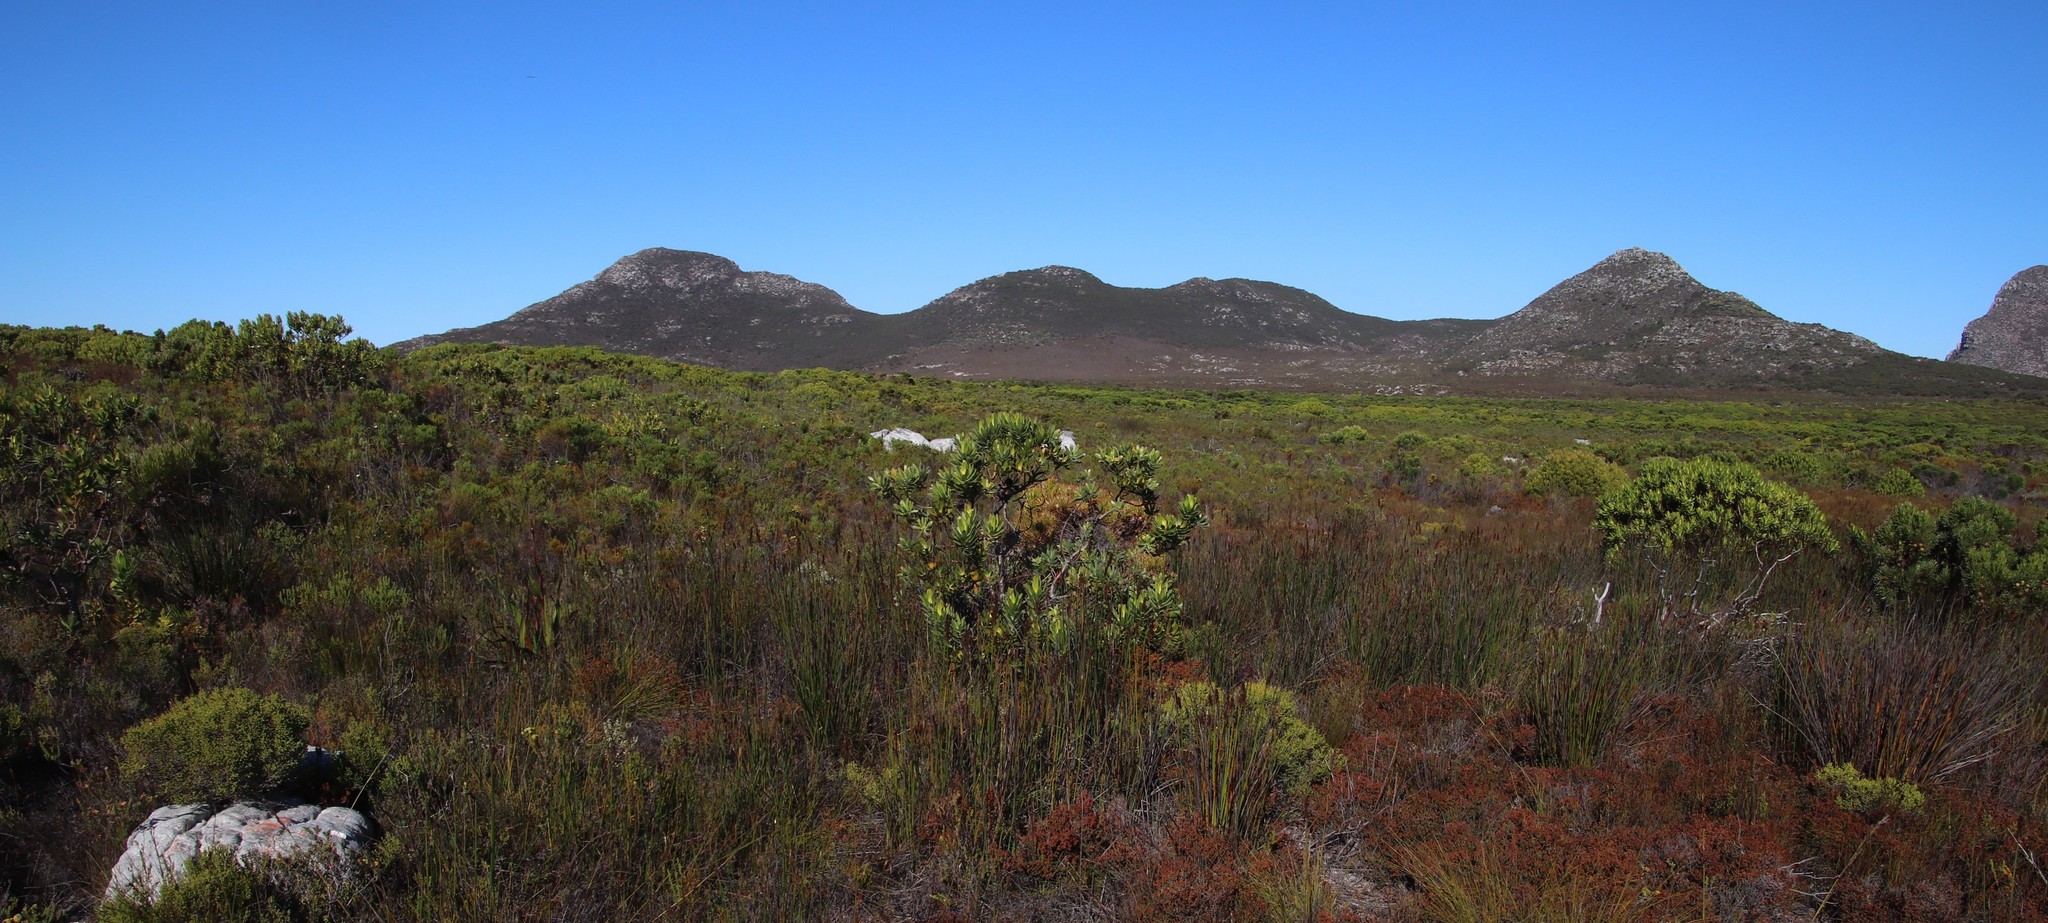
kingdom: Plantae
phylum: Tracheophyta
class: Magnoliopsida
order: Proteales
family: Proteaceae
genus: Leucadendron
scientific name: Leucadendron laureolum
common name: Golden sunshinebush
